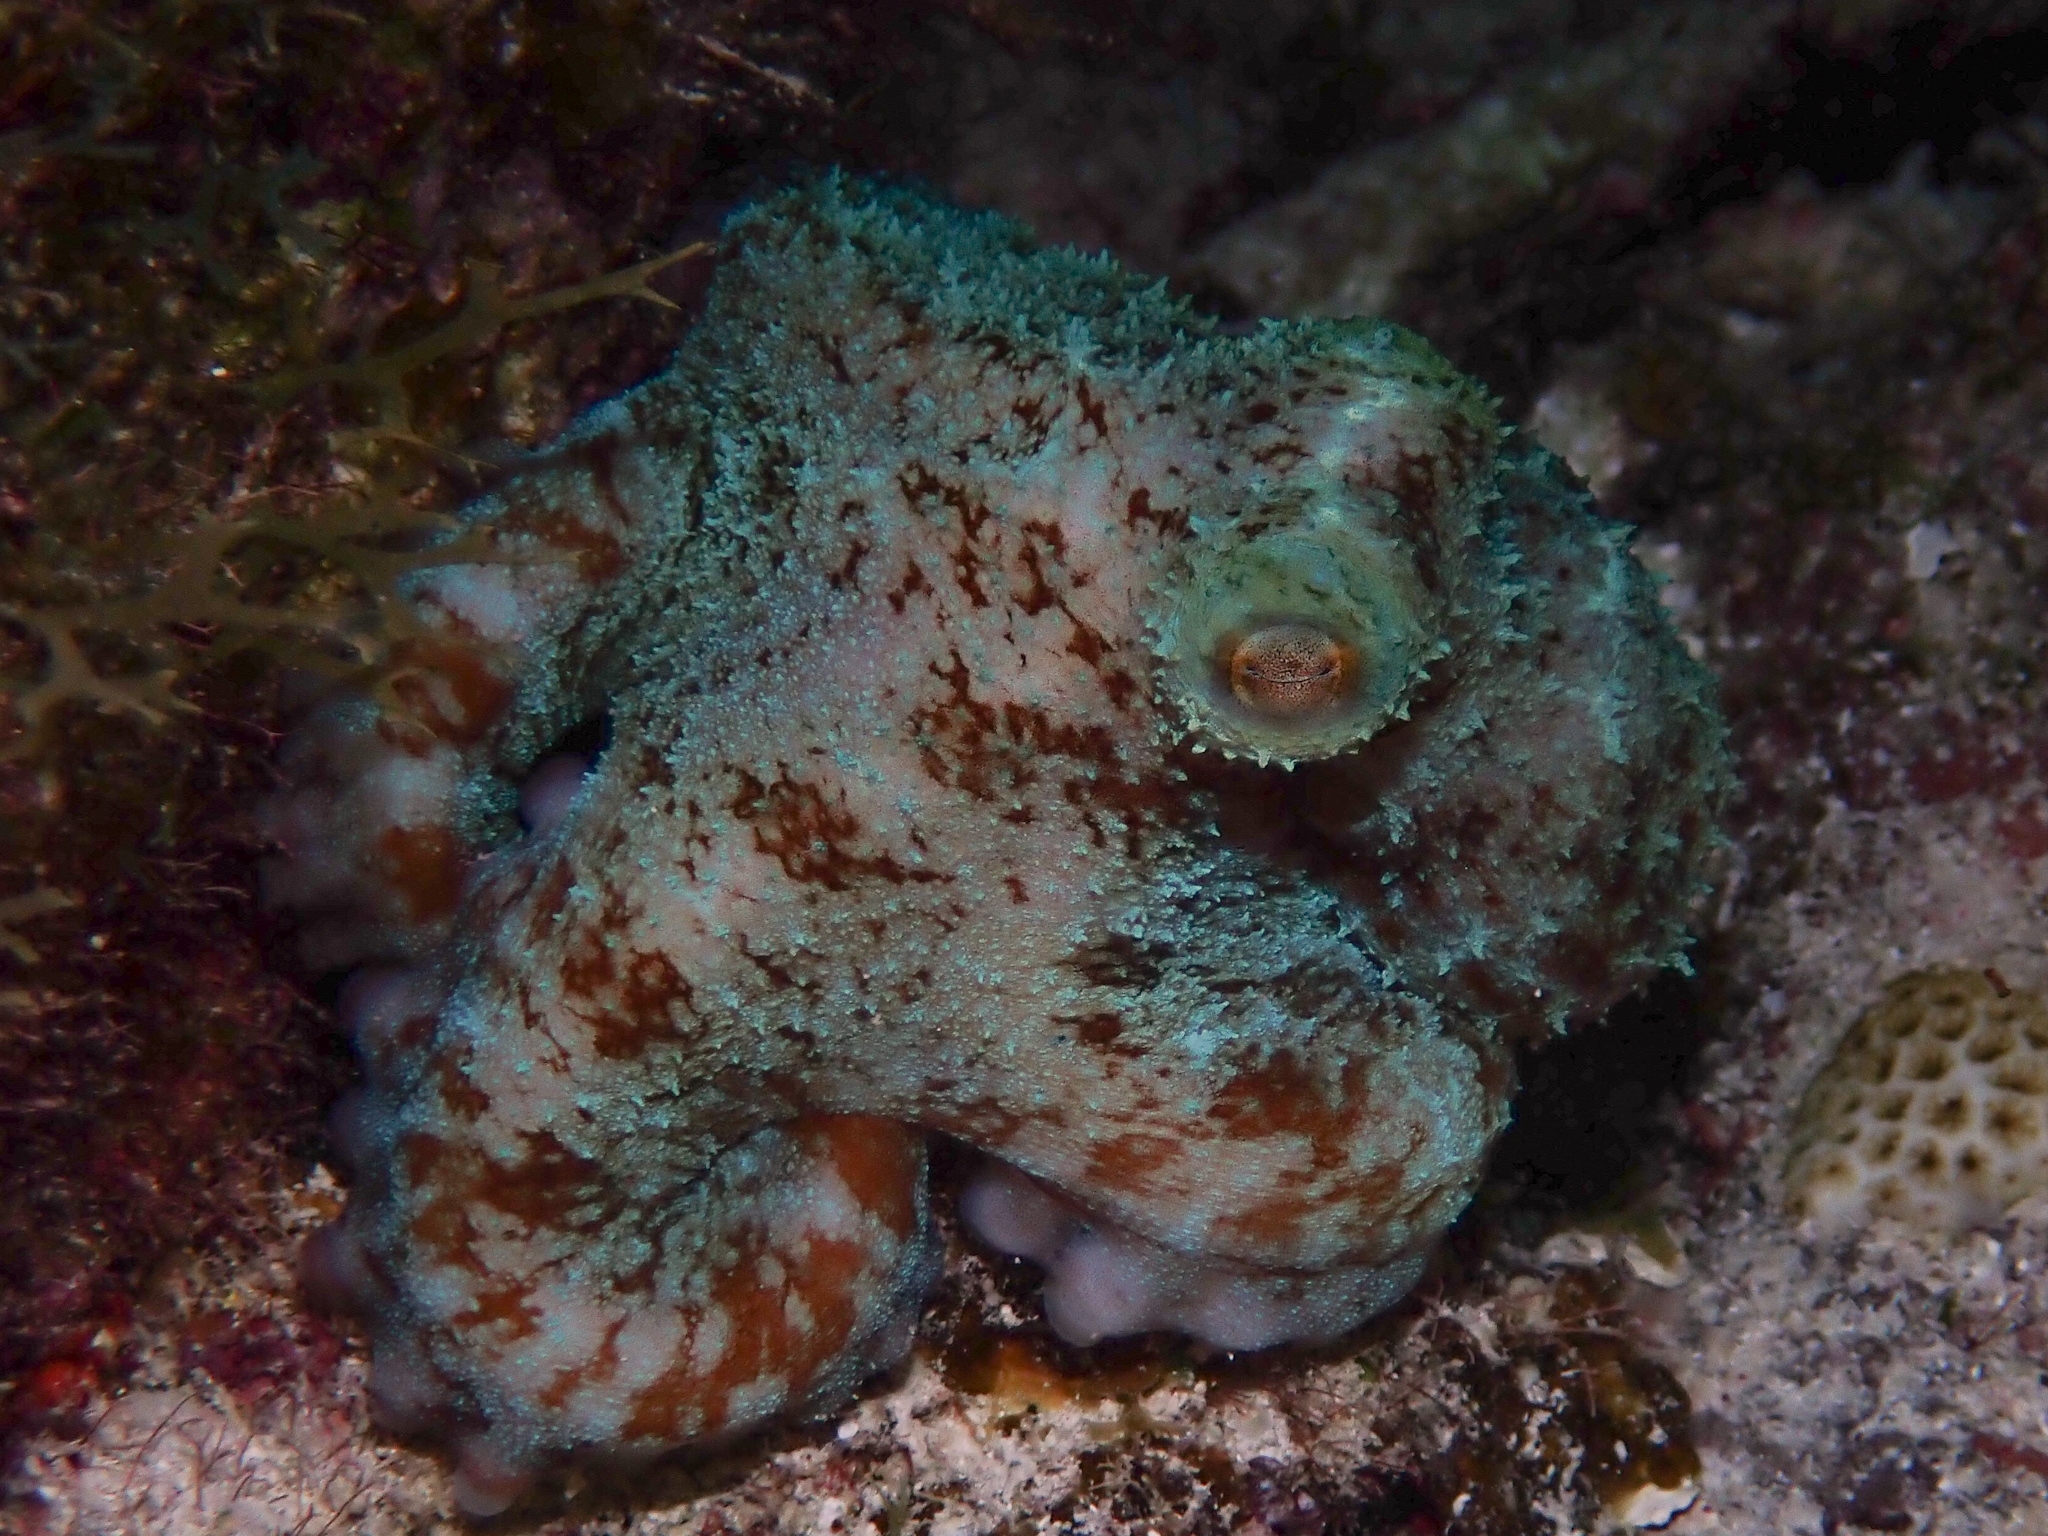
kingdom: Animalia
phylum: Mollusca
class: Cephalopoda
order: Octopoda
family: Octopodidae
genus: Octopus
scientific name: Octopus briareus
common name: Caribbean reef octopus
